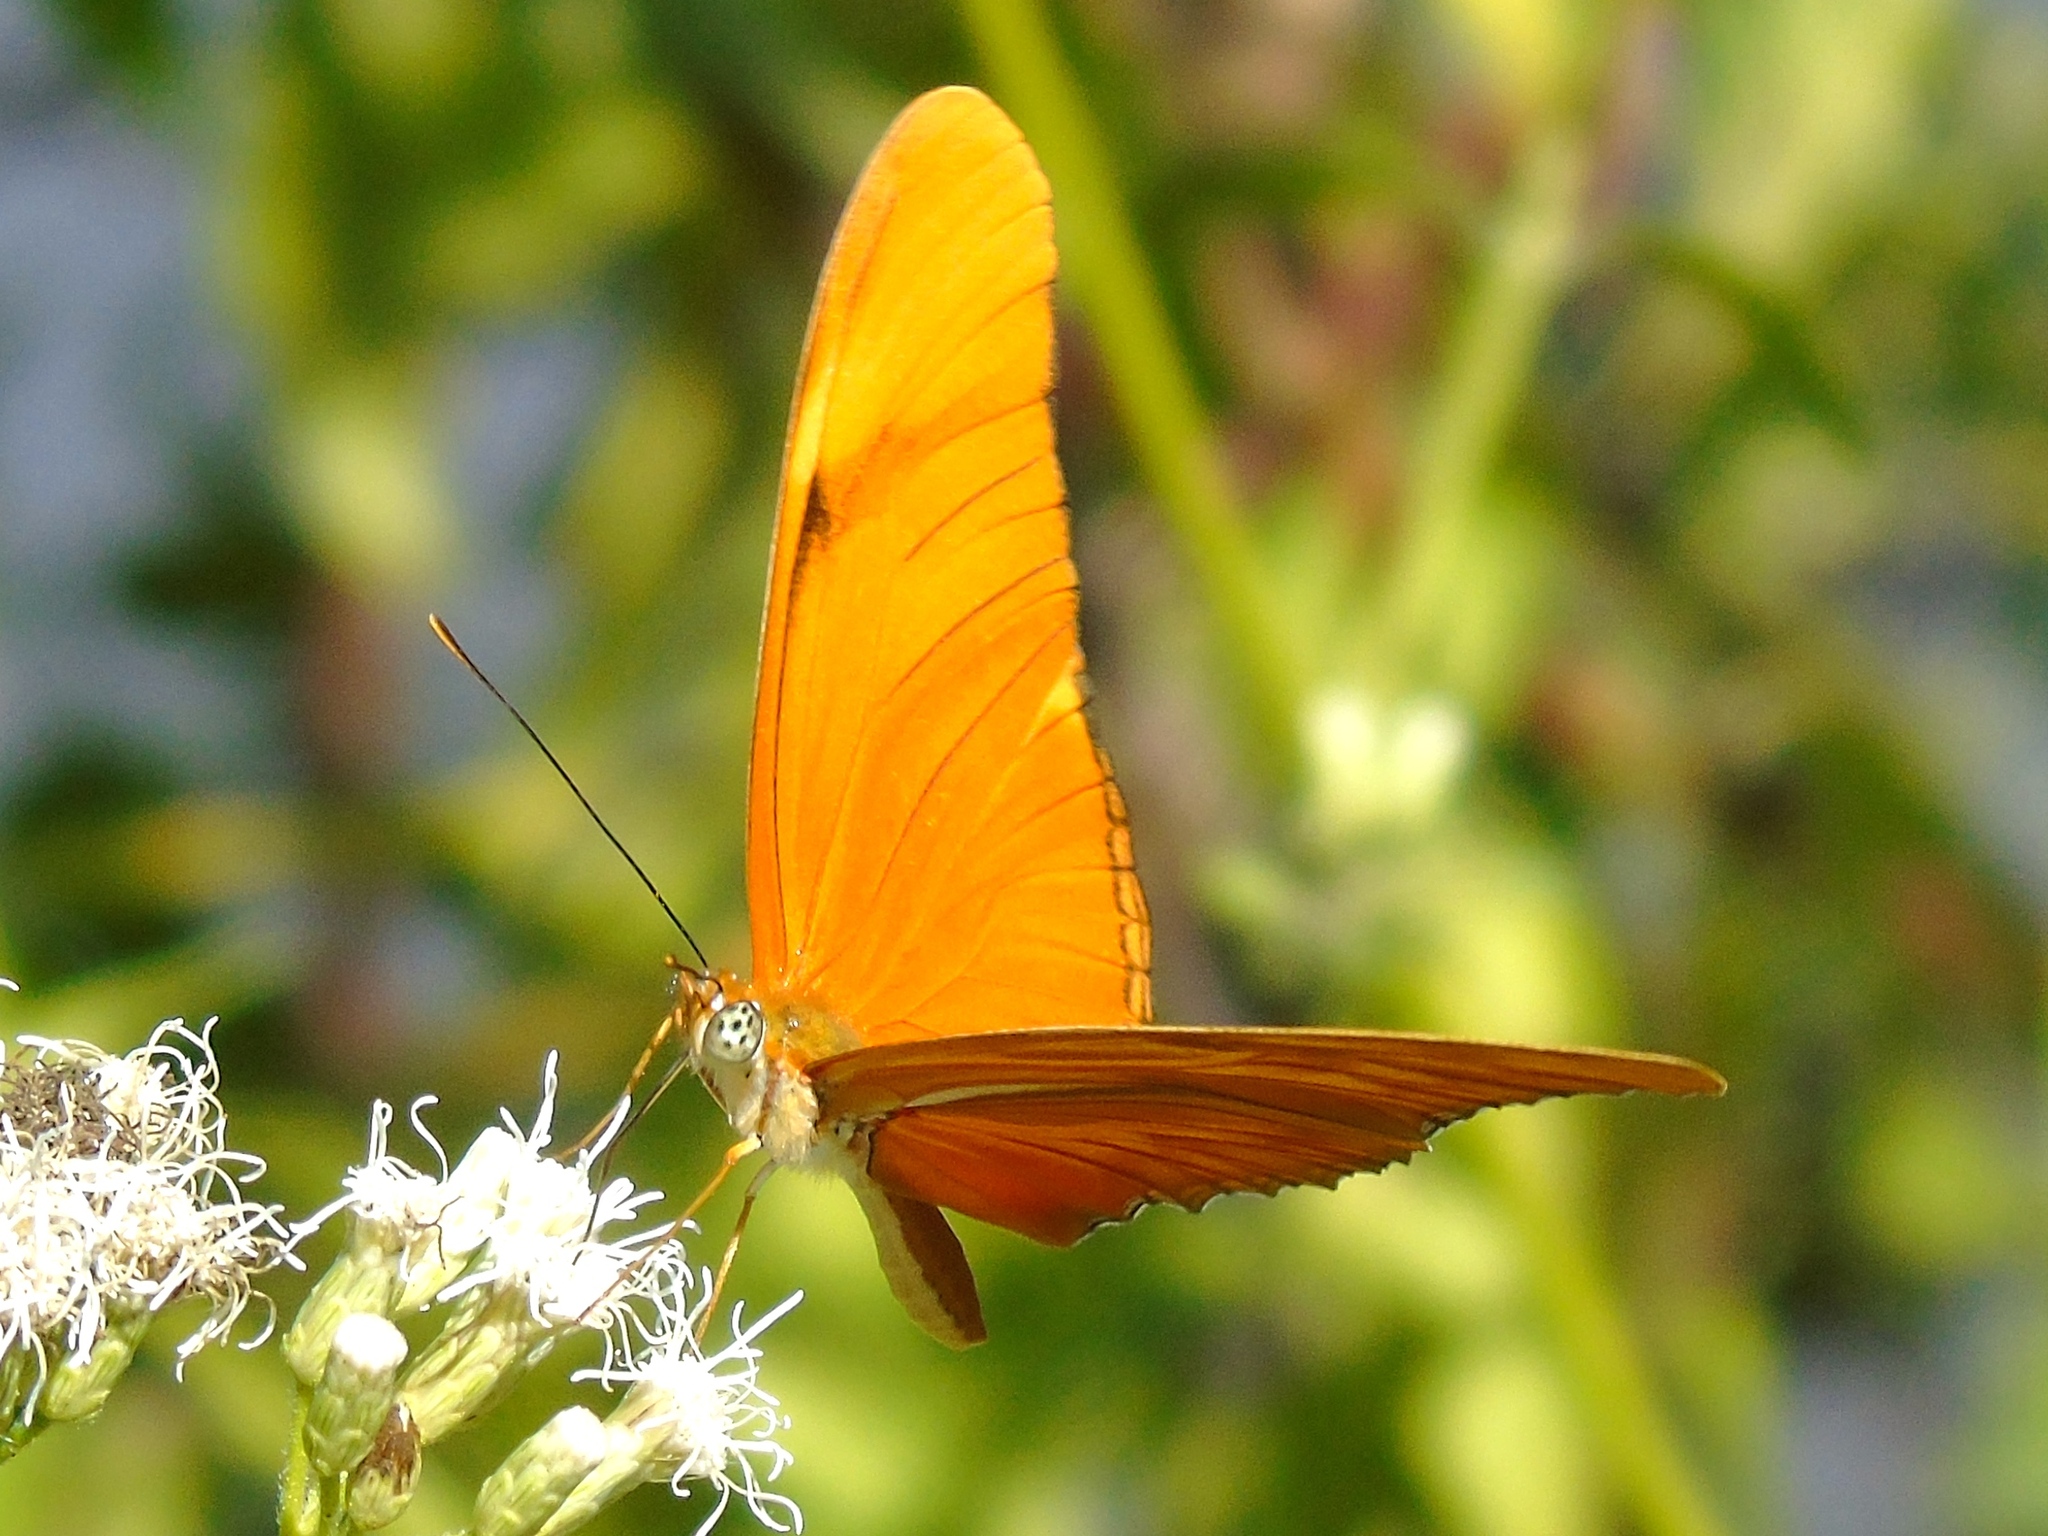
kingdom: Animalia
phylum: Arthropoda
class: Insecta
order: Lepidoptera
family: Nymphalidae
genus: Dryas
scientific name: Dryas iulia
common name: Flambeau
